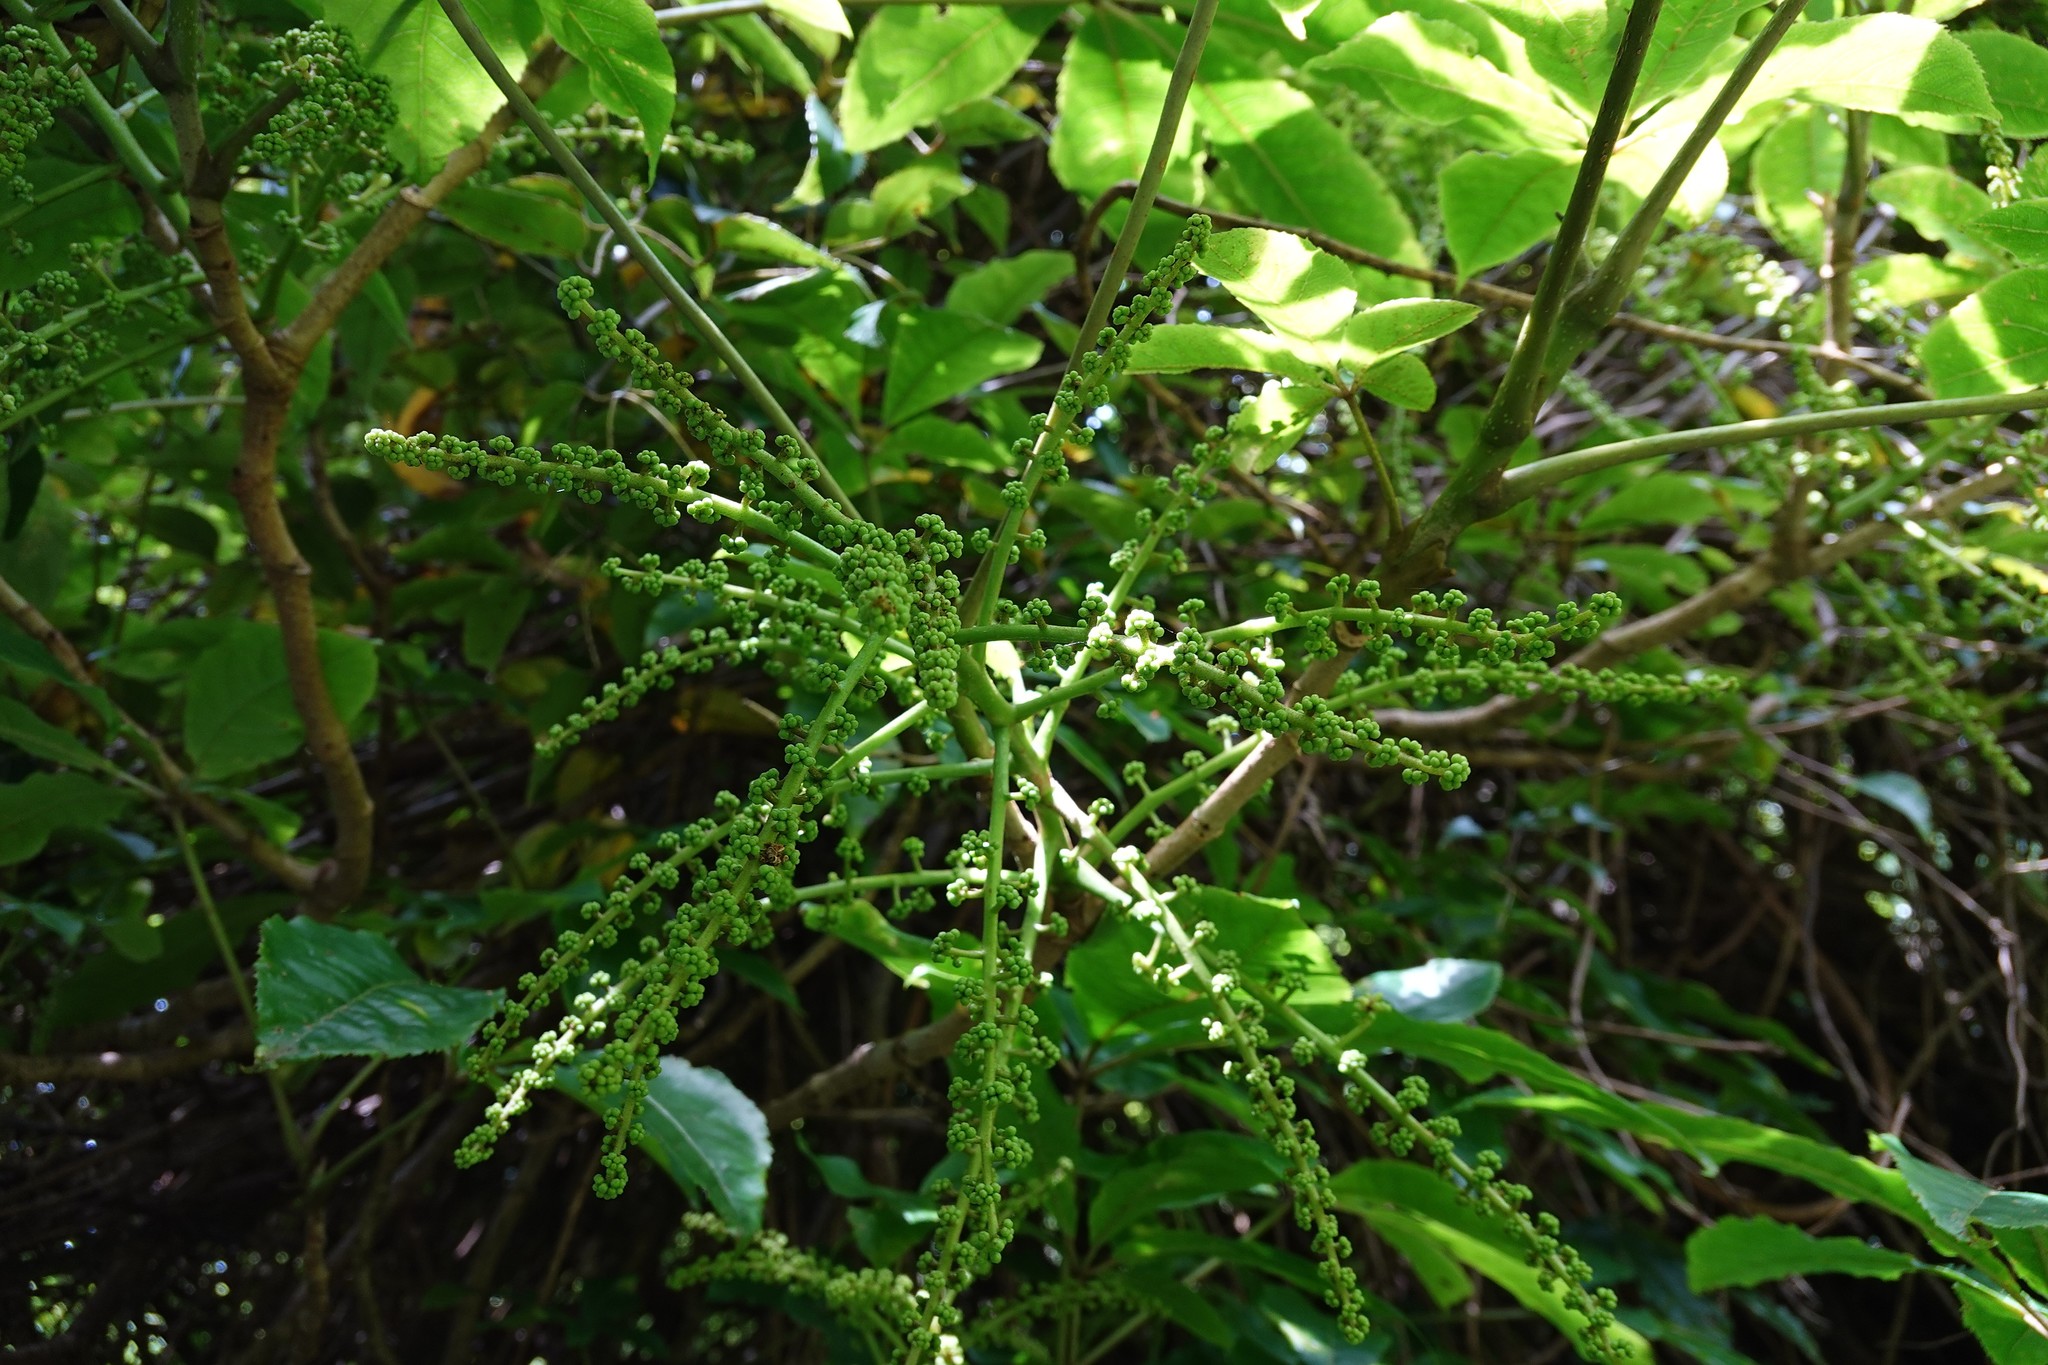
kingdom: Plantae
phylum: Tracheophyta
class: Magnoliopsida
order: Apiales
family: Araliaceae
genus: Schefflera
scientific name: Schefflera digitata
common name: Pate
